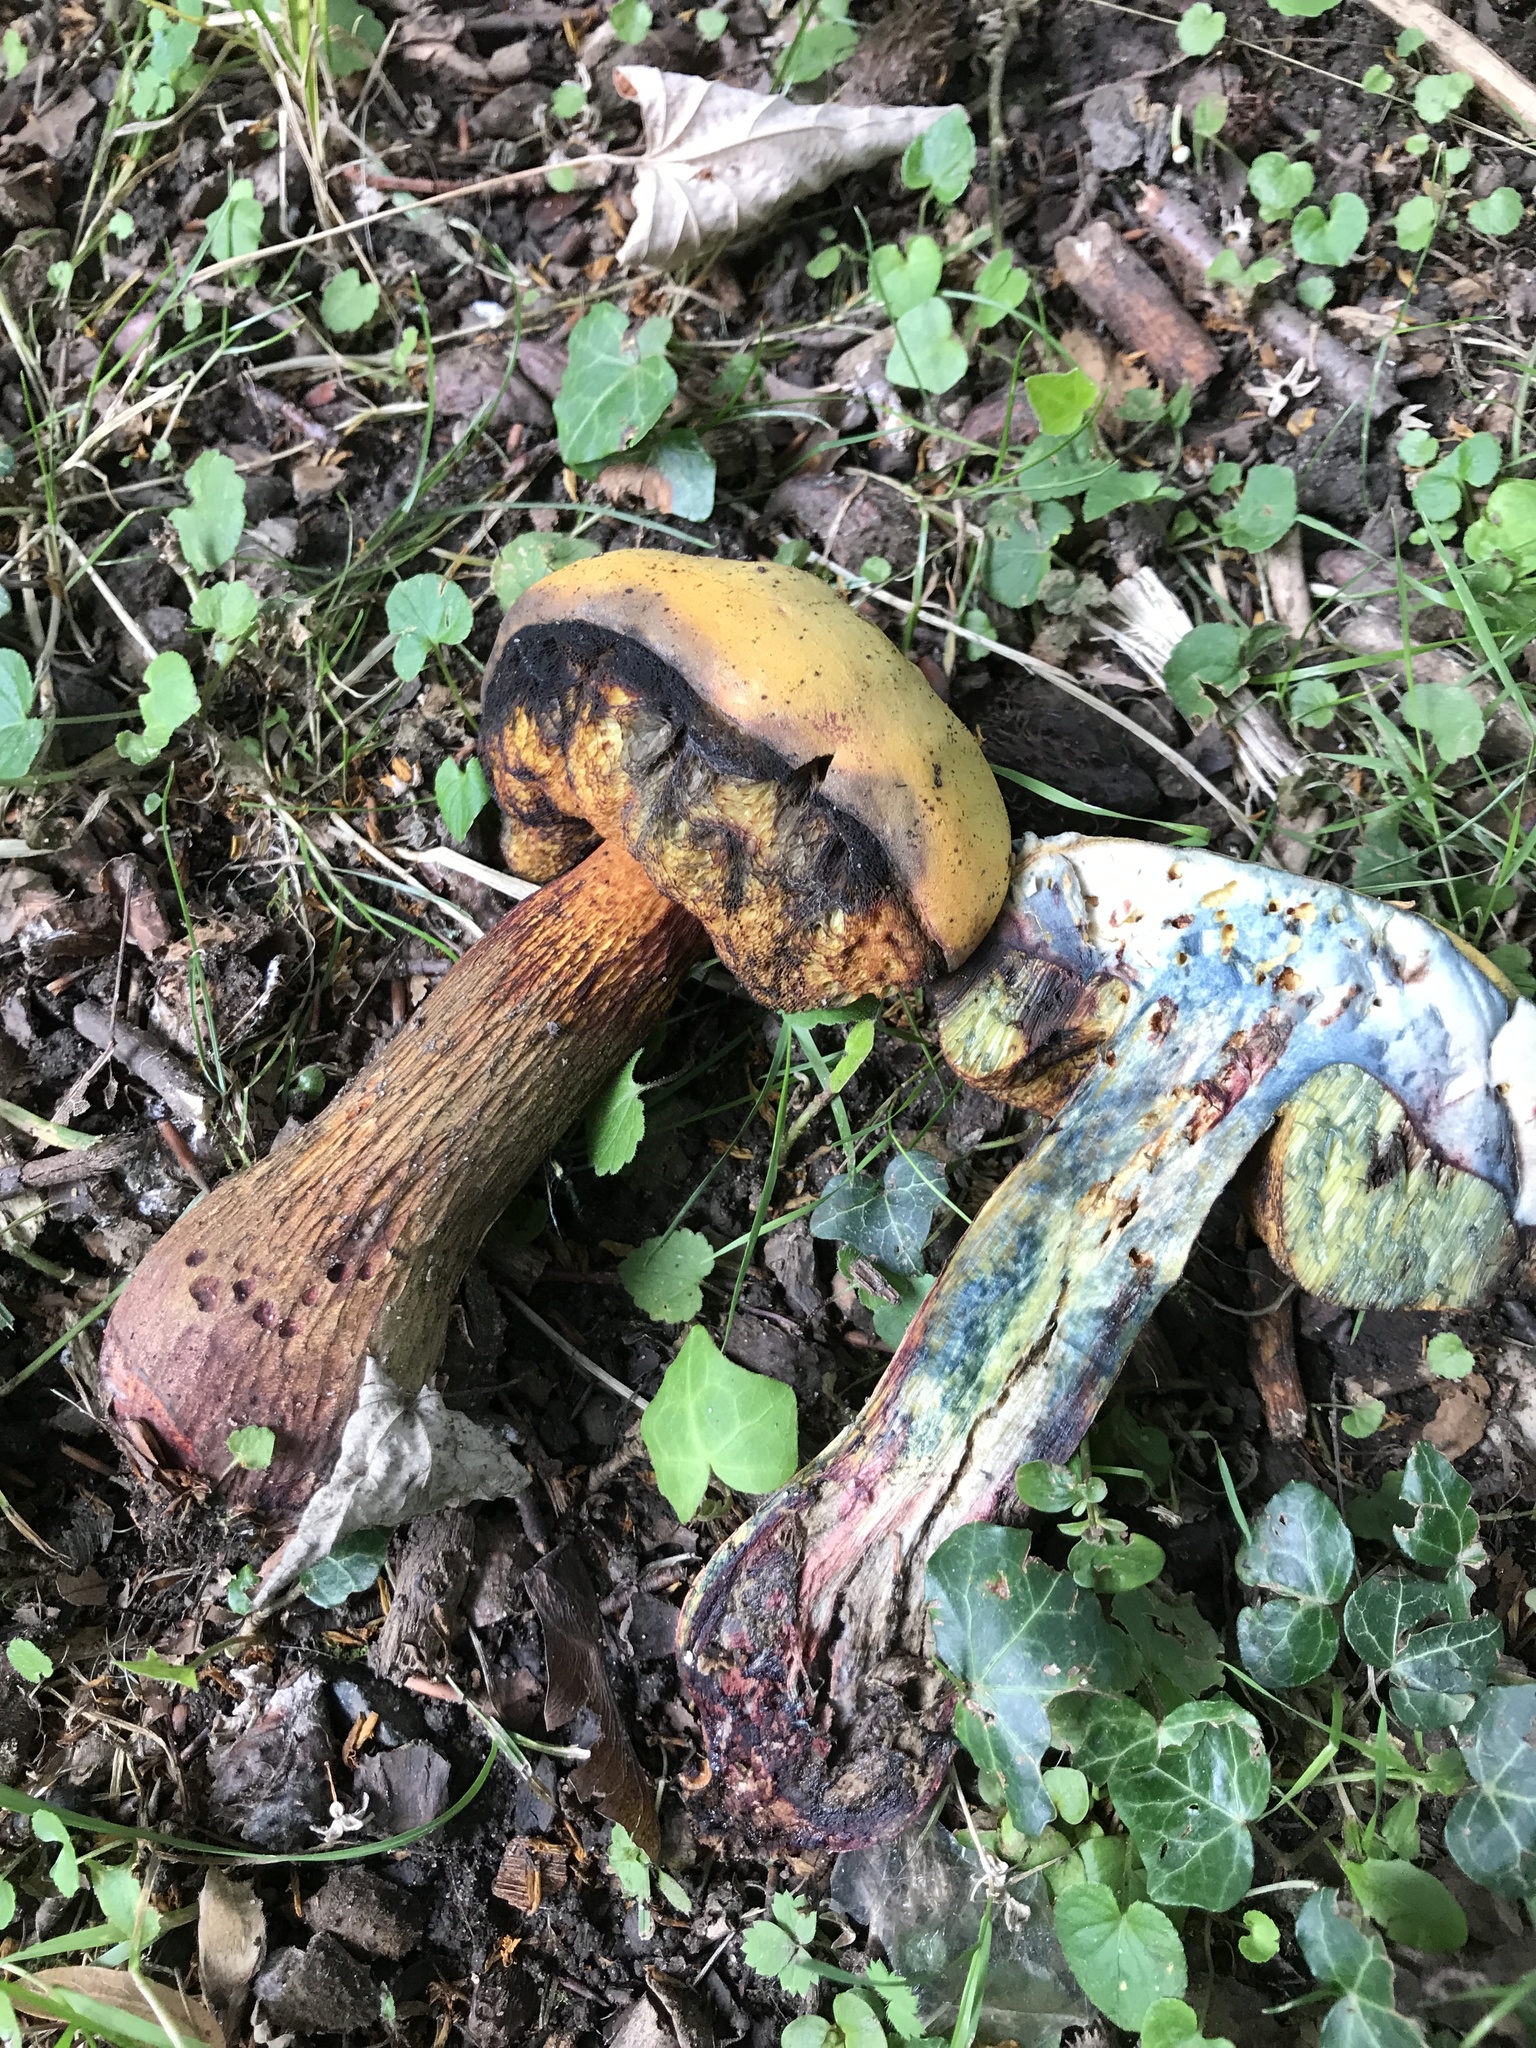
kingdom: Fungi
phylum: Basidiomycota
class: Agaricomycetes
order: Boletales
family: Boletaceae
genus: Suillellus
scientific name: Suillellus luridus
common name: Lurid bolete
